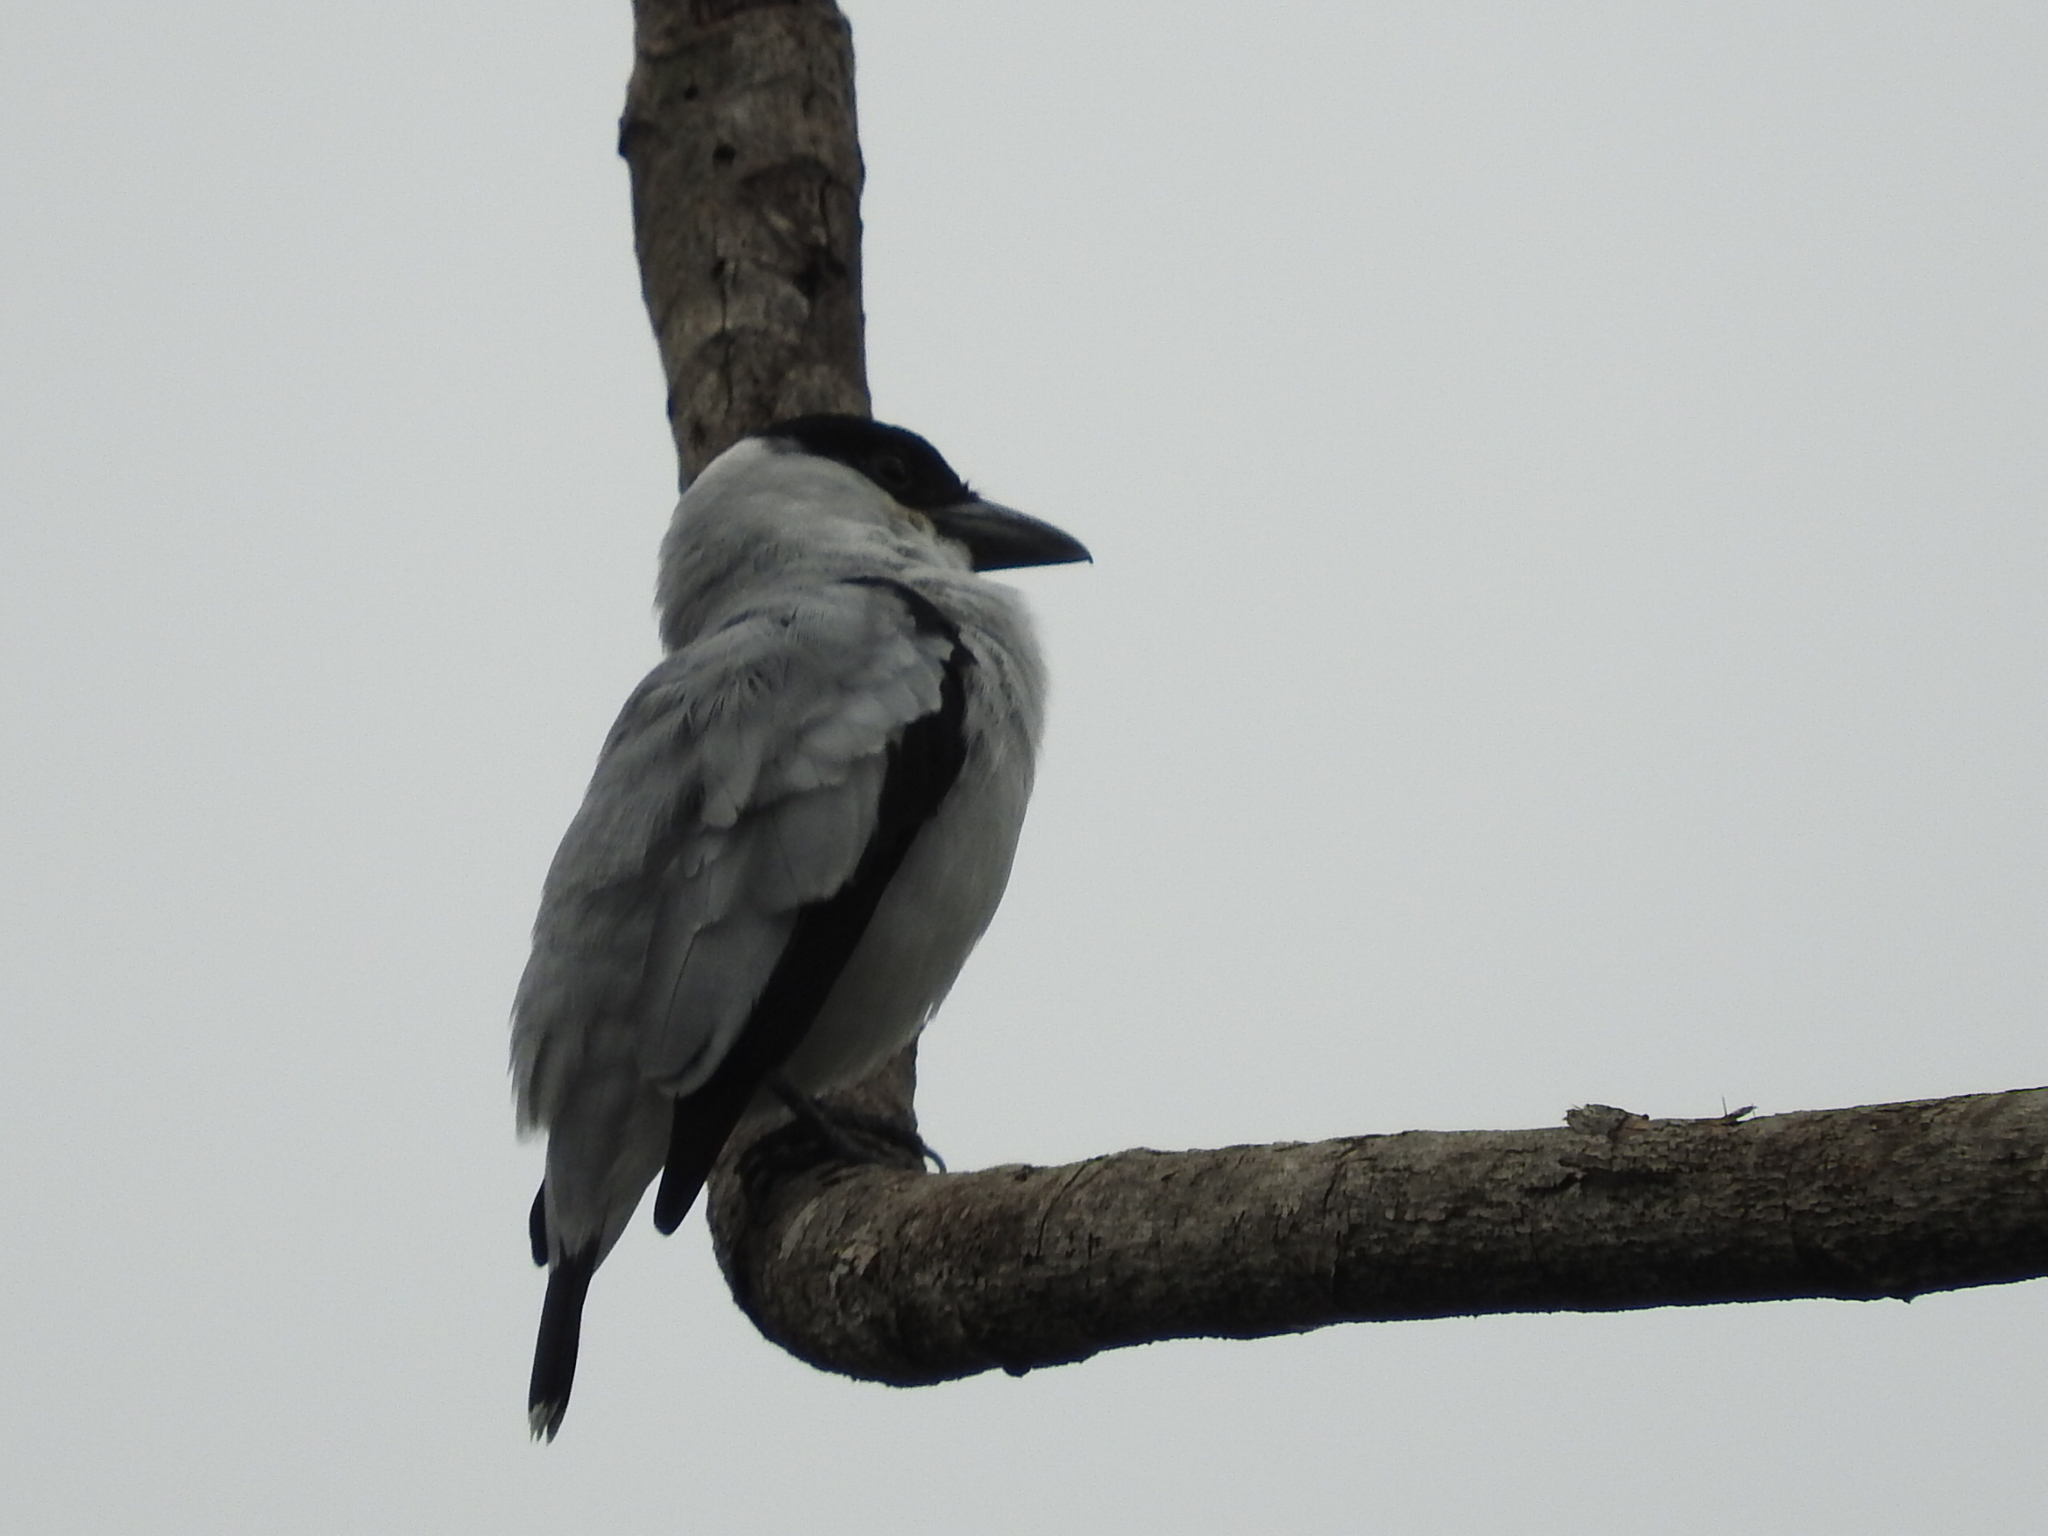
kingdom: Animalia
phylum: Chordata
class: Aves
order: Passeriformes
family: Cotingidae
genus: Tityra
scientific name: Tityra inquisitor
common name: Black-crowned tityra
